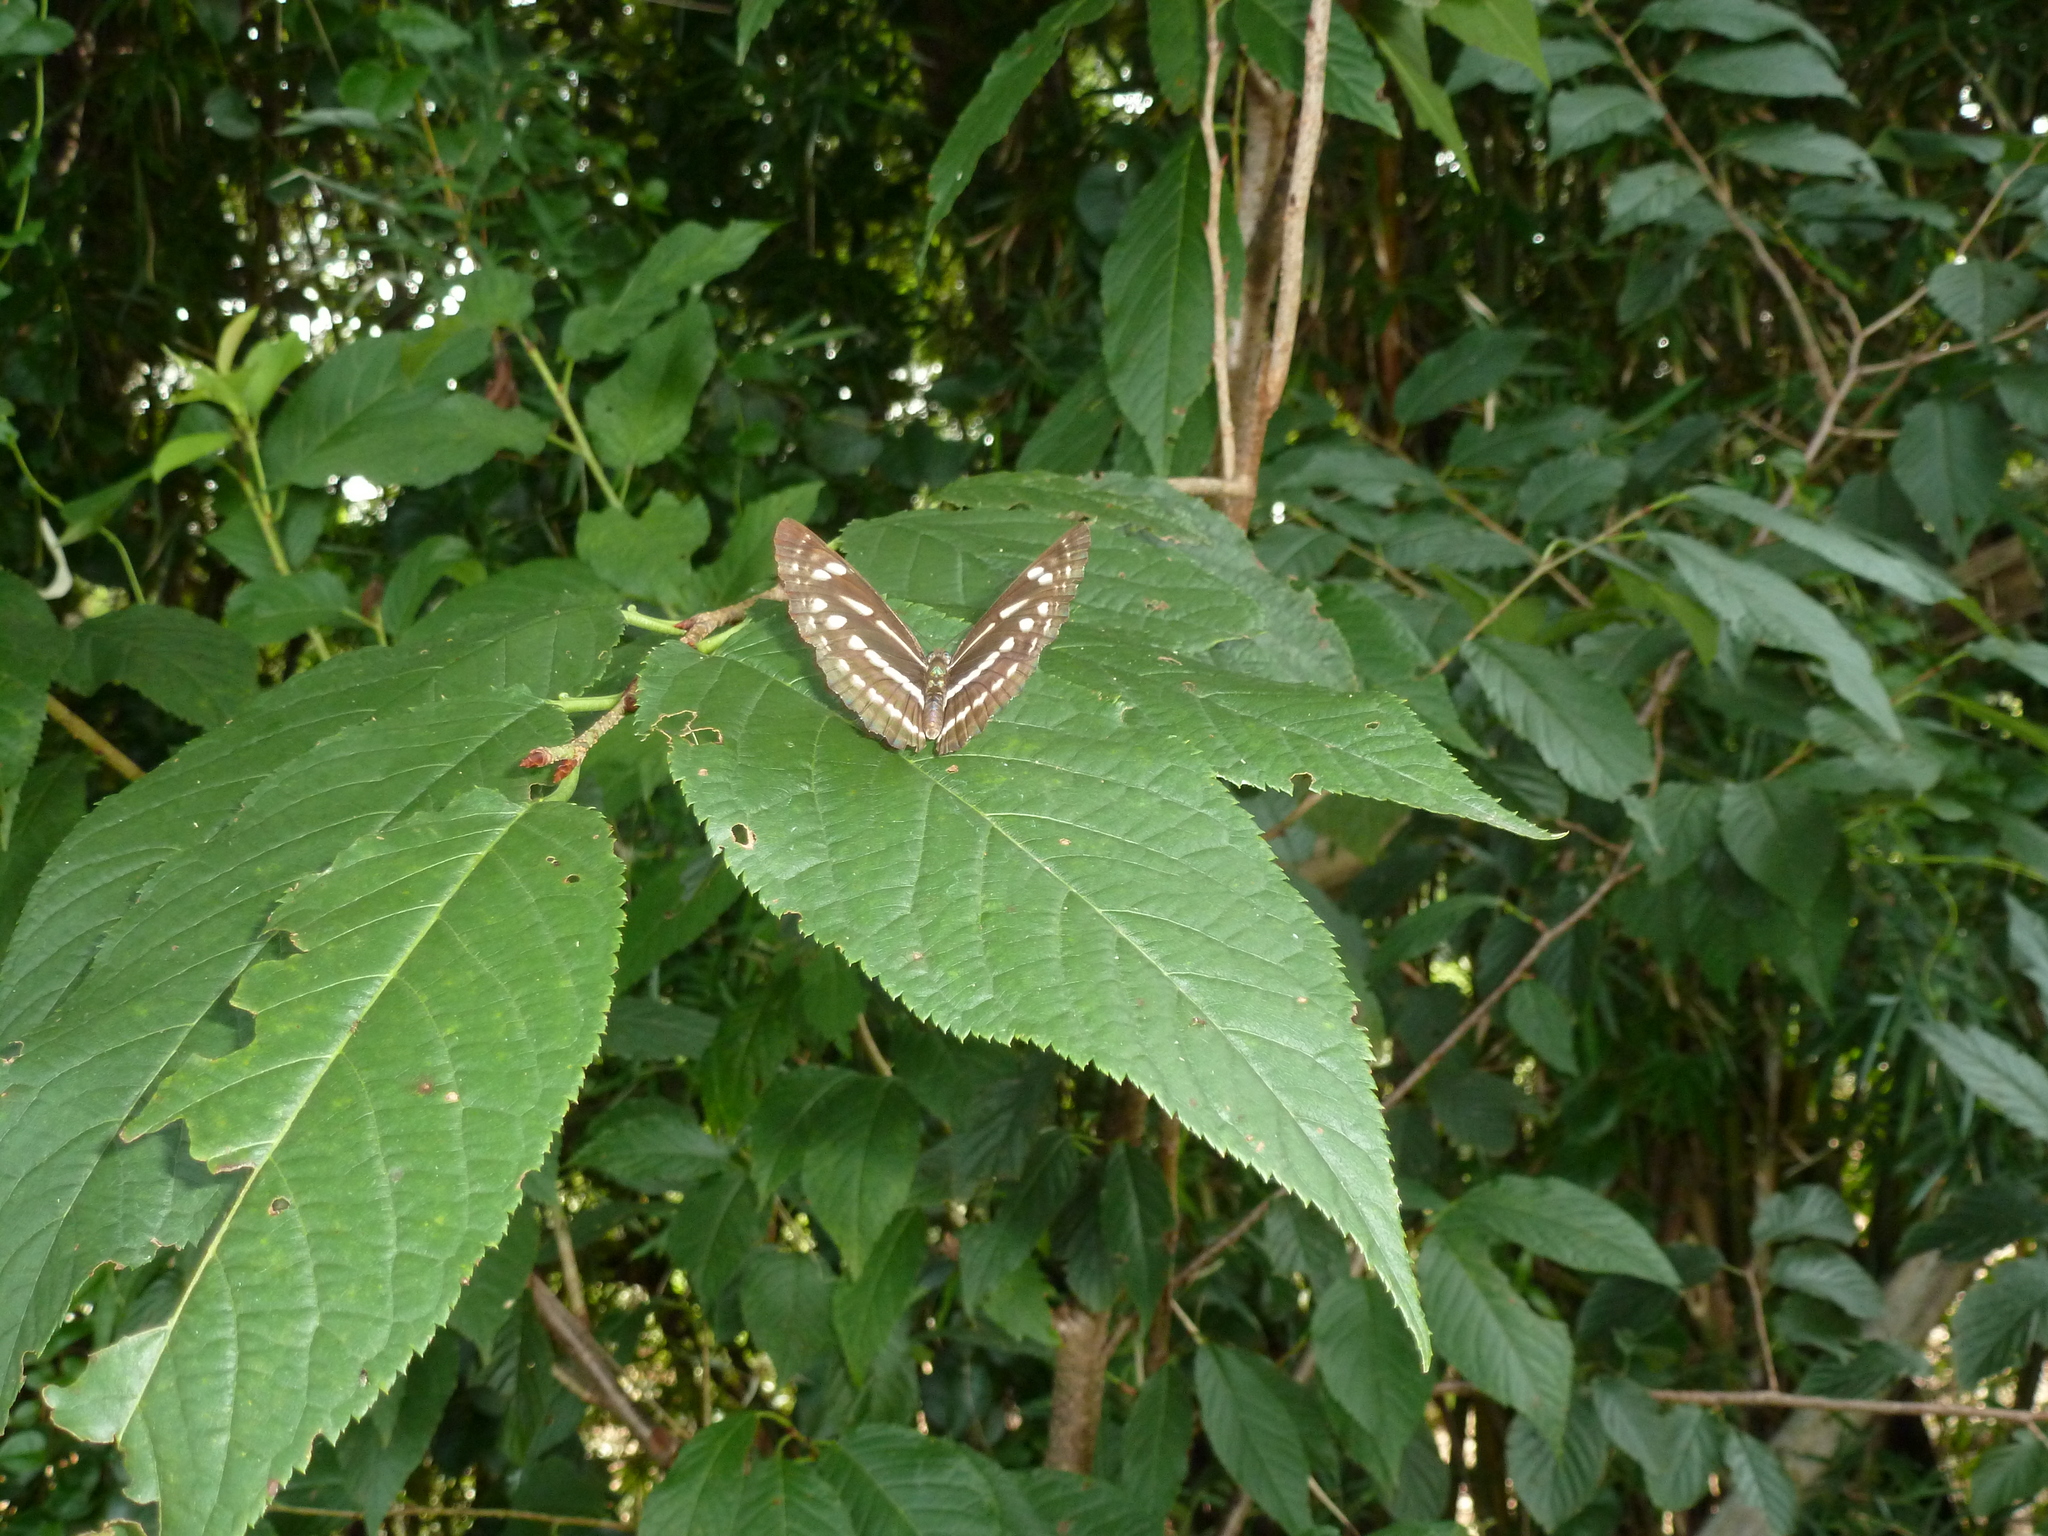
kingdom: Animalia
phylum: Arthropoda
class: Insecta
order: Lepidoptera
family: Nymphalidae
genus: Neptis
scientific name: Neptis nata
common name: Sullied brown sailer
